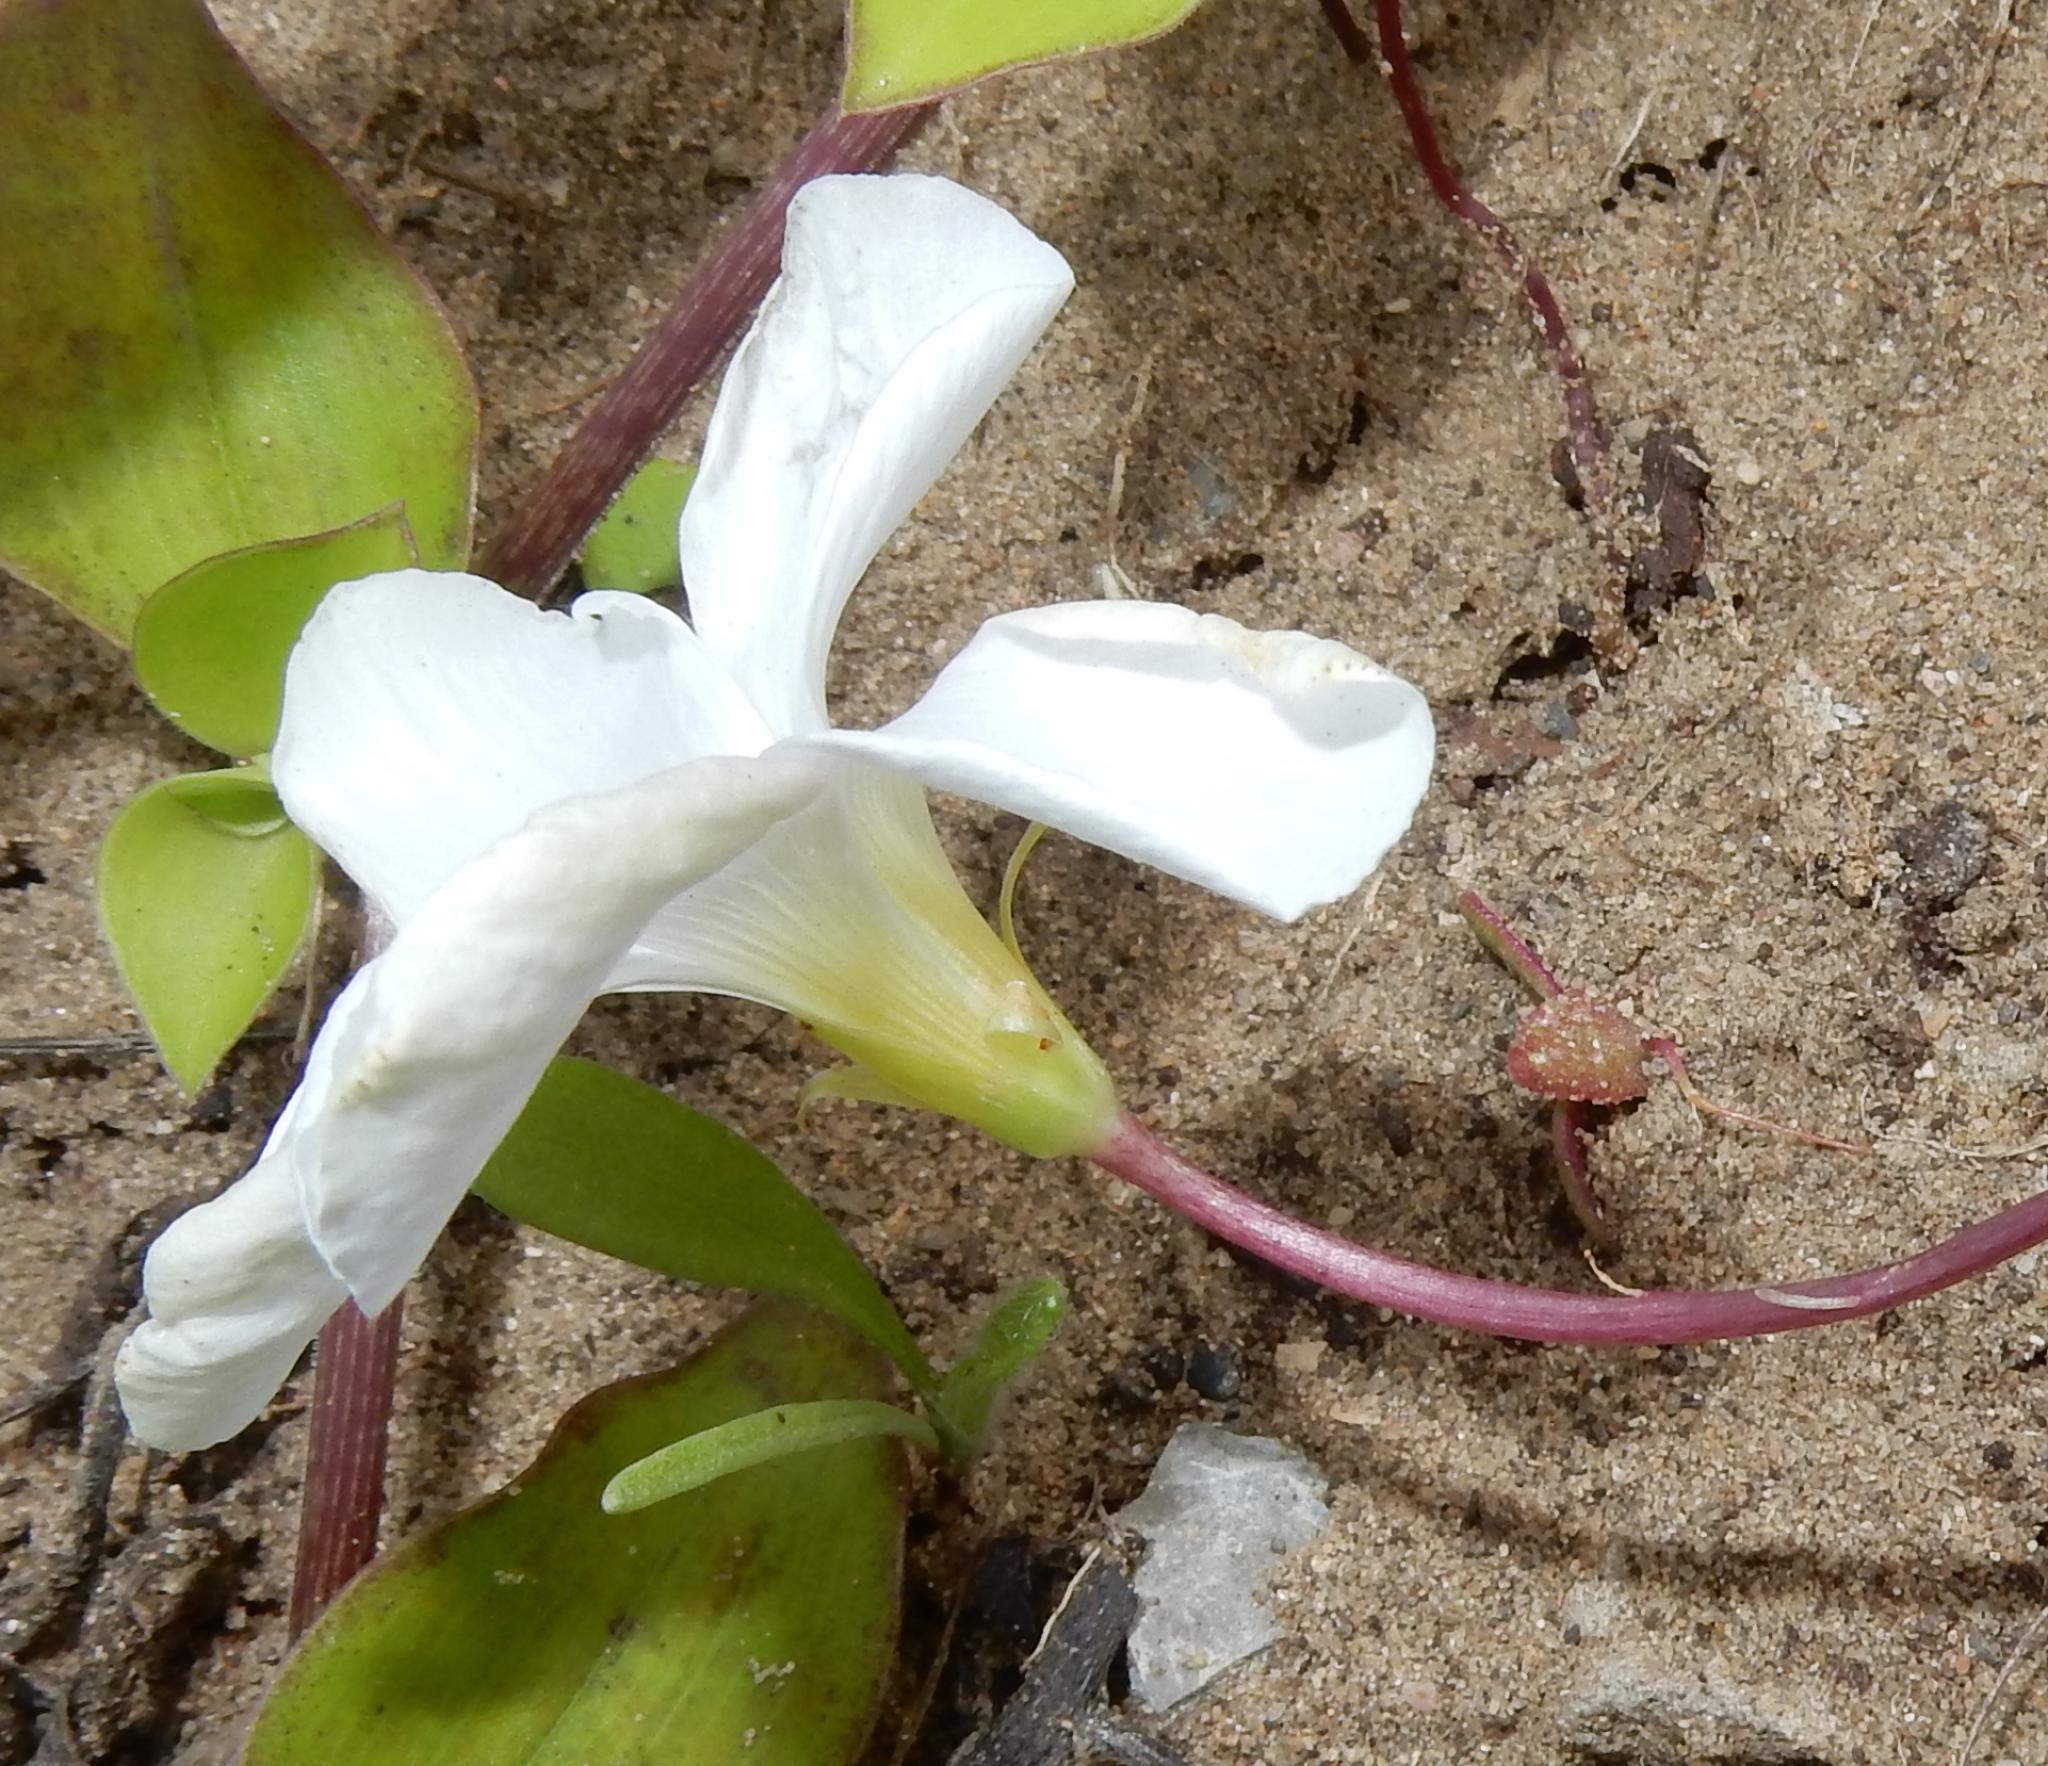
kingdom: Plantae
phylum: Tracheophyta
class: Magnoliopsida
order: Oxalidales
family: Oxalidaceae
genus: Oxalis
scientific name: Oxalis depressa
